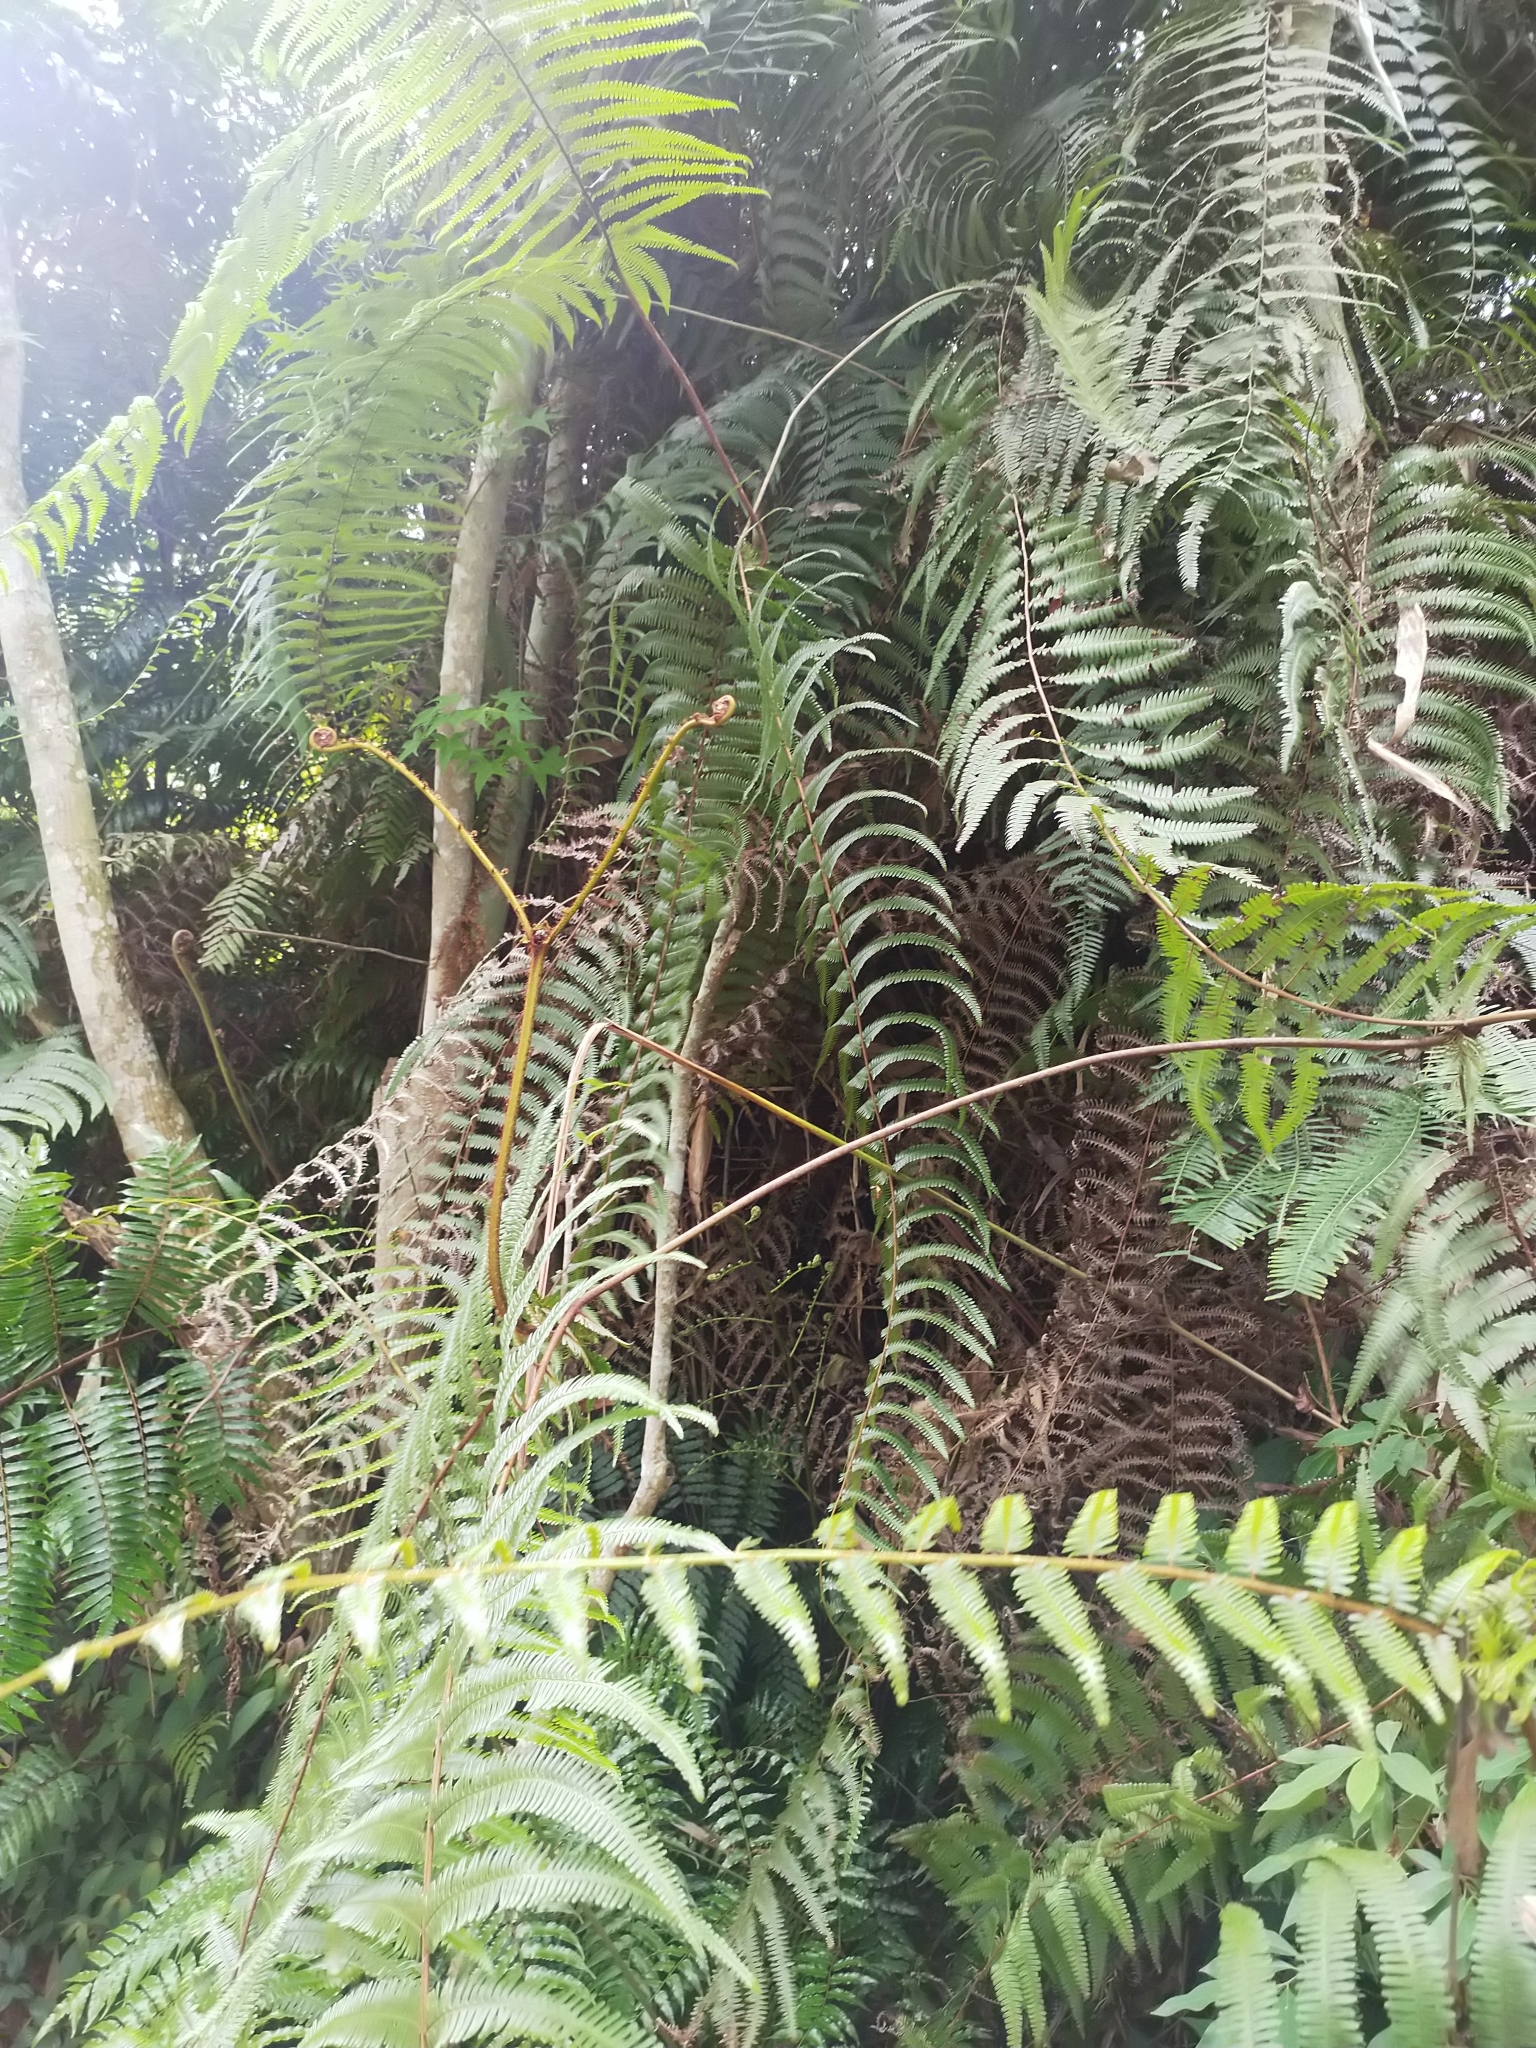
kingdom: Plantae
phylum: Tracheophyta
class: Polypodiopsida
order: Gleicheniales
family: Gleicheniaceae
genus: Diplopterygium
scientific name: Diplopterygium blotianum
